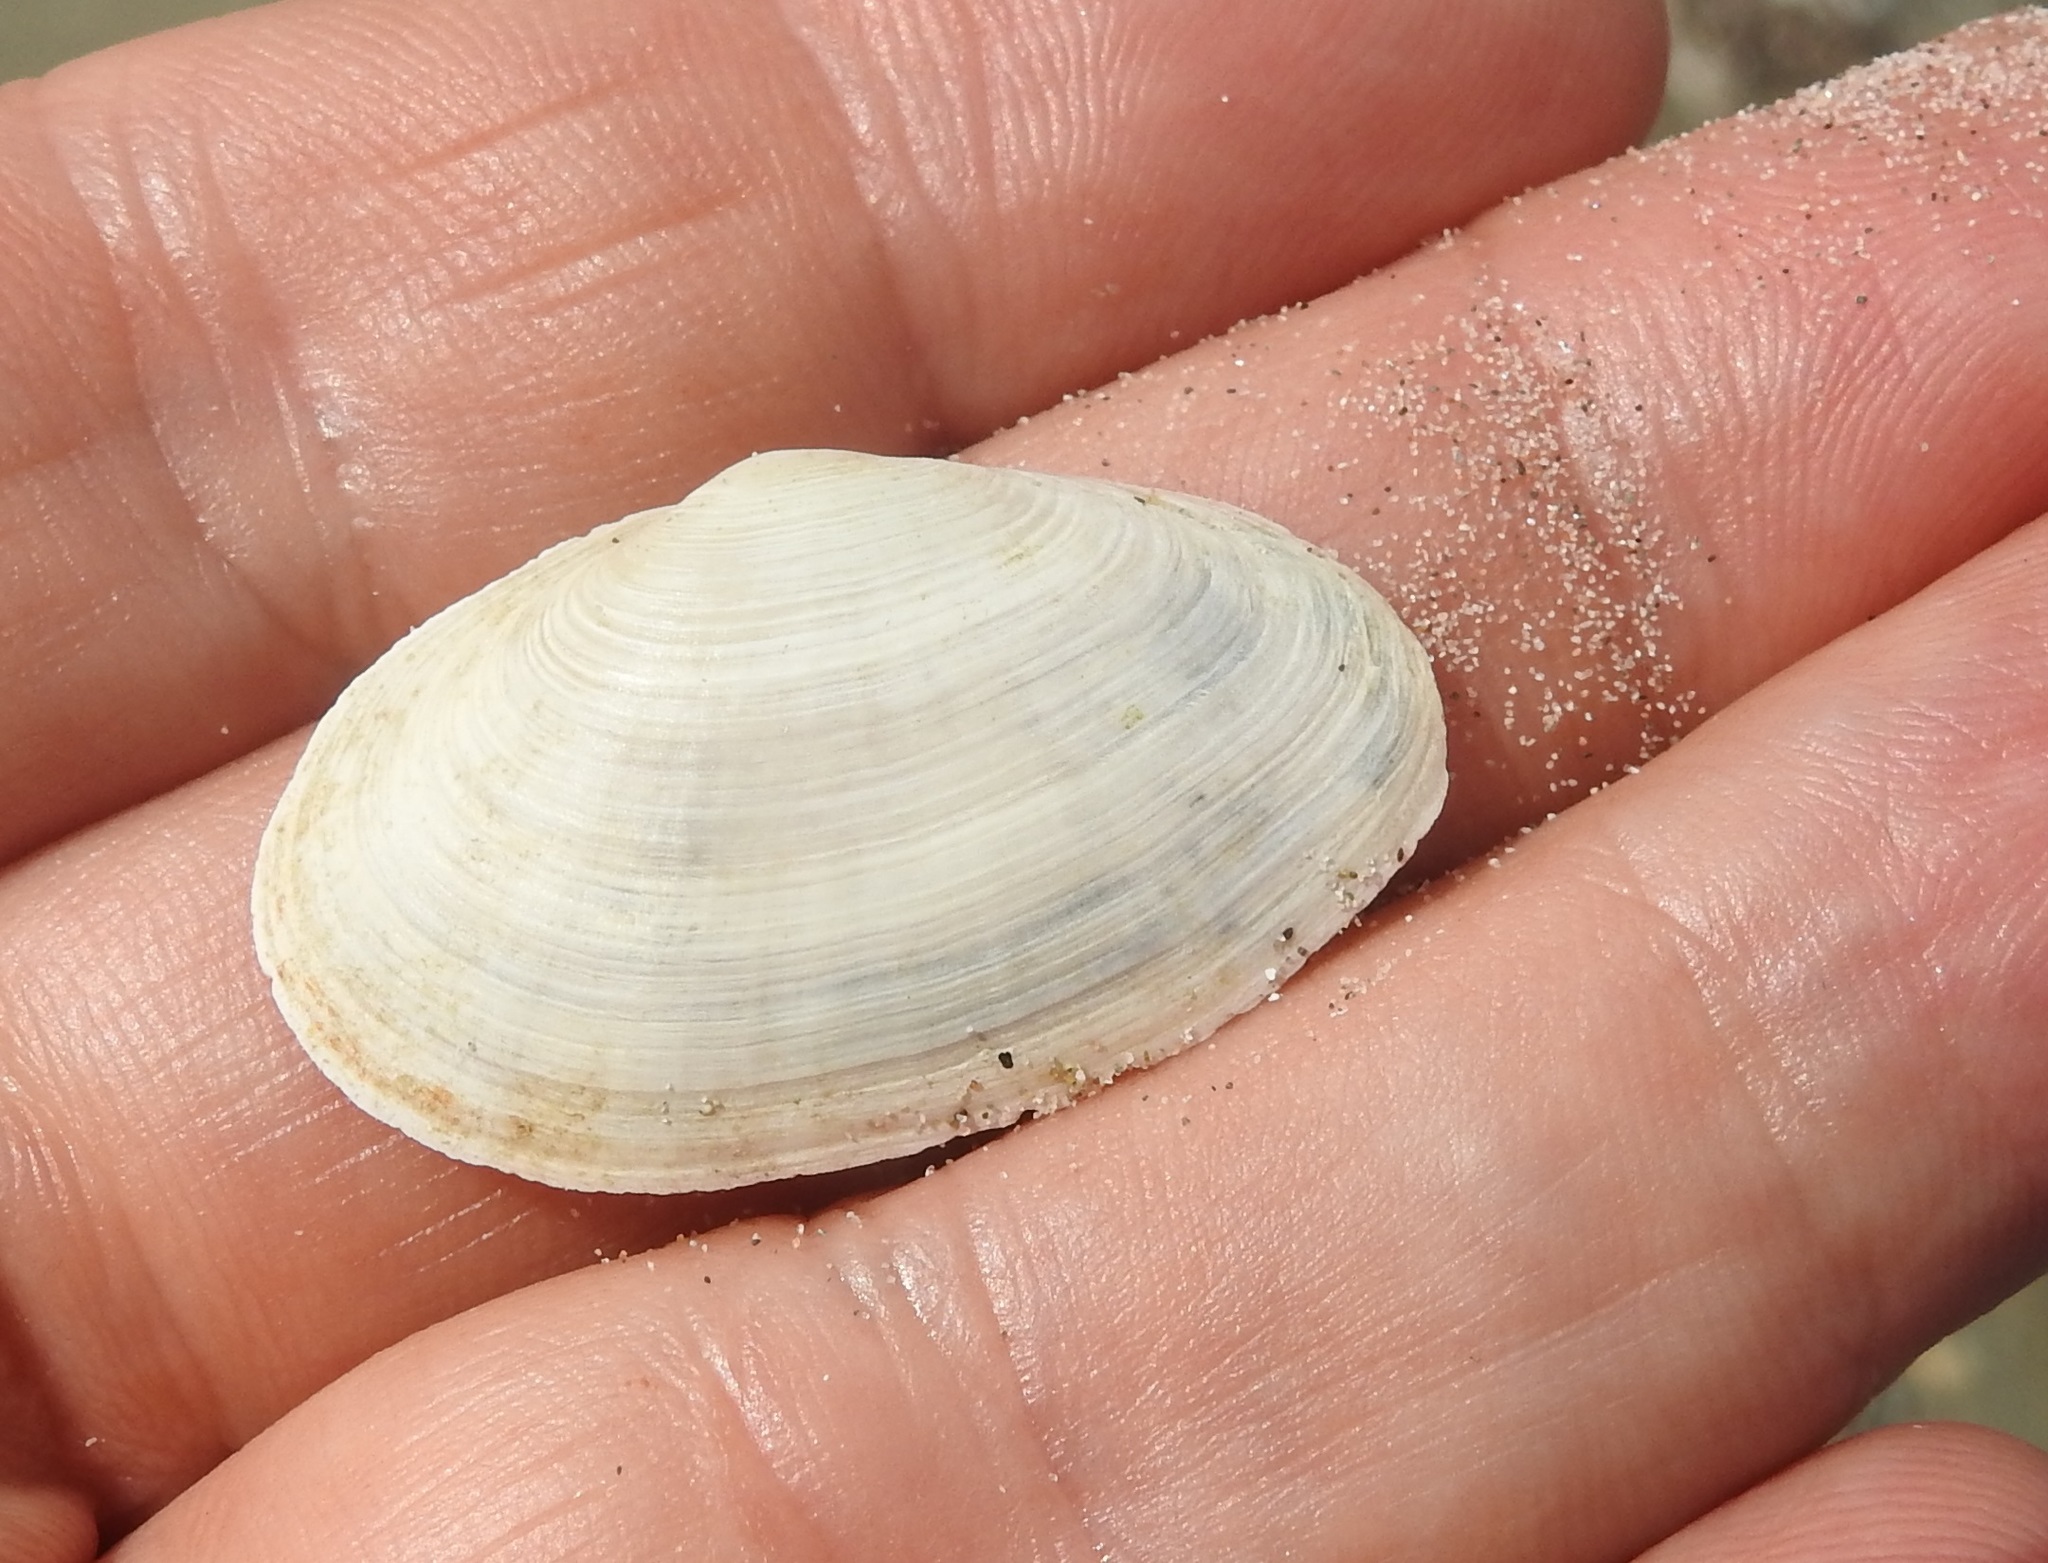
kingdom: Animalia
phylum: Mollusca
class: Bivalvia
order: Myida
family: Myidae
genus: Mya
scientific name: Mya arenaria
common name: Soft-shelled clam
